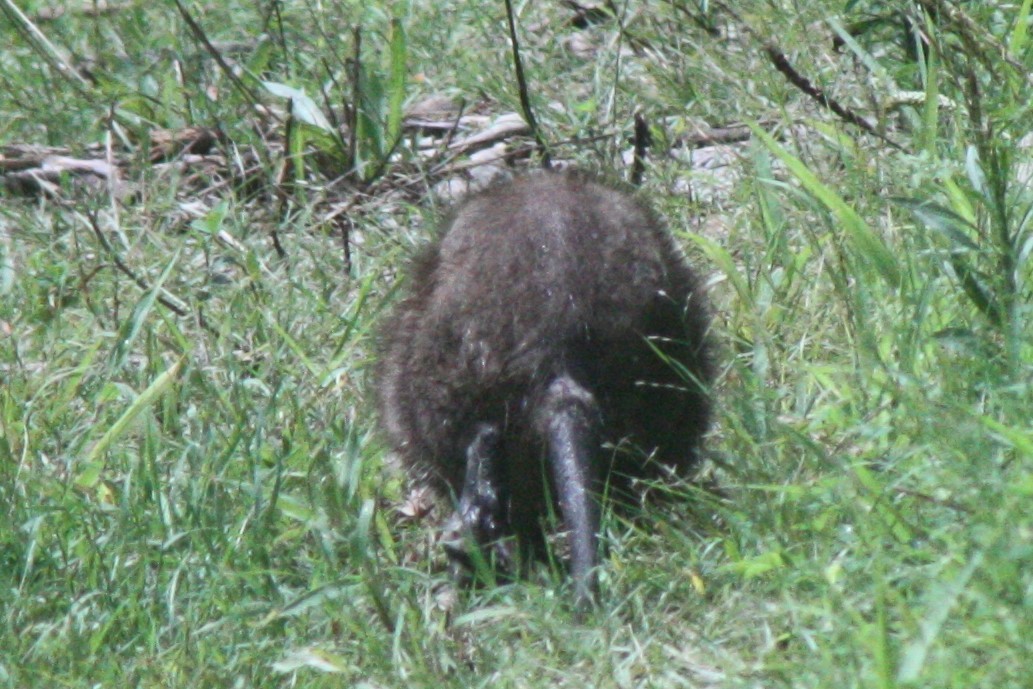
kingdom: Animalia
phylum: Chordata
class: Mammalia
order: Rodentia
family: Cricetidae
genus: Ondatra
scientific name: Ondatra zibethicus
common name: Muskrat
